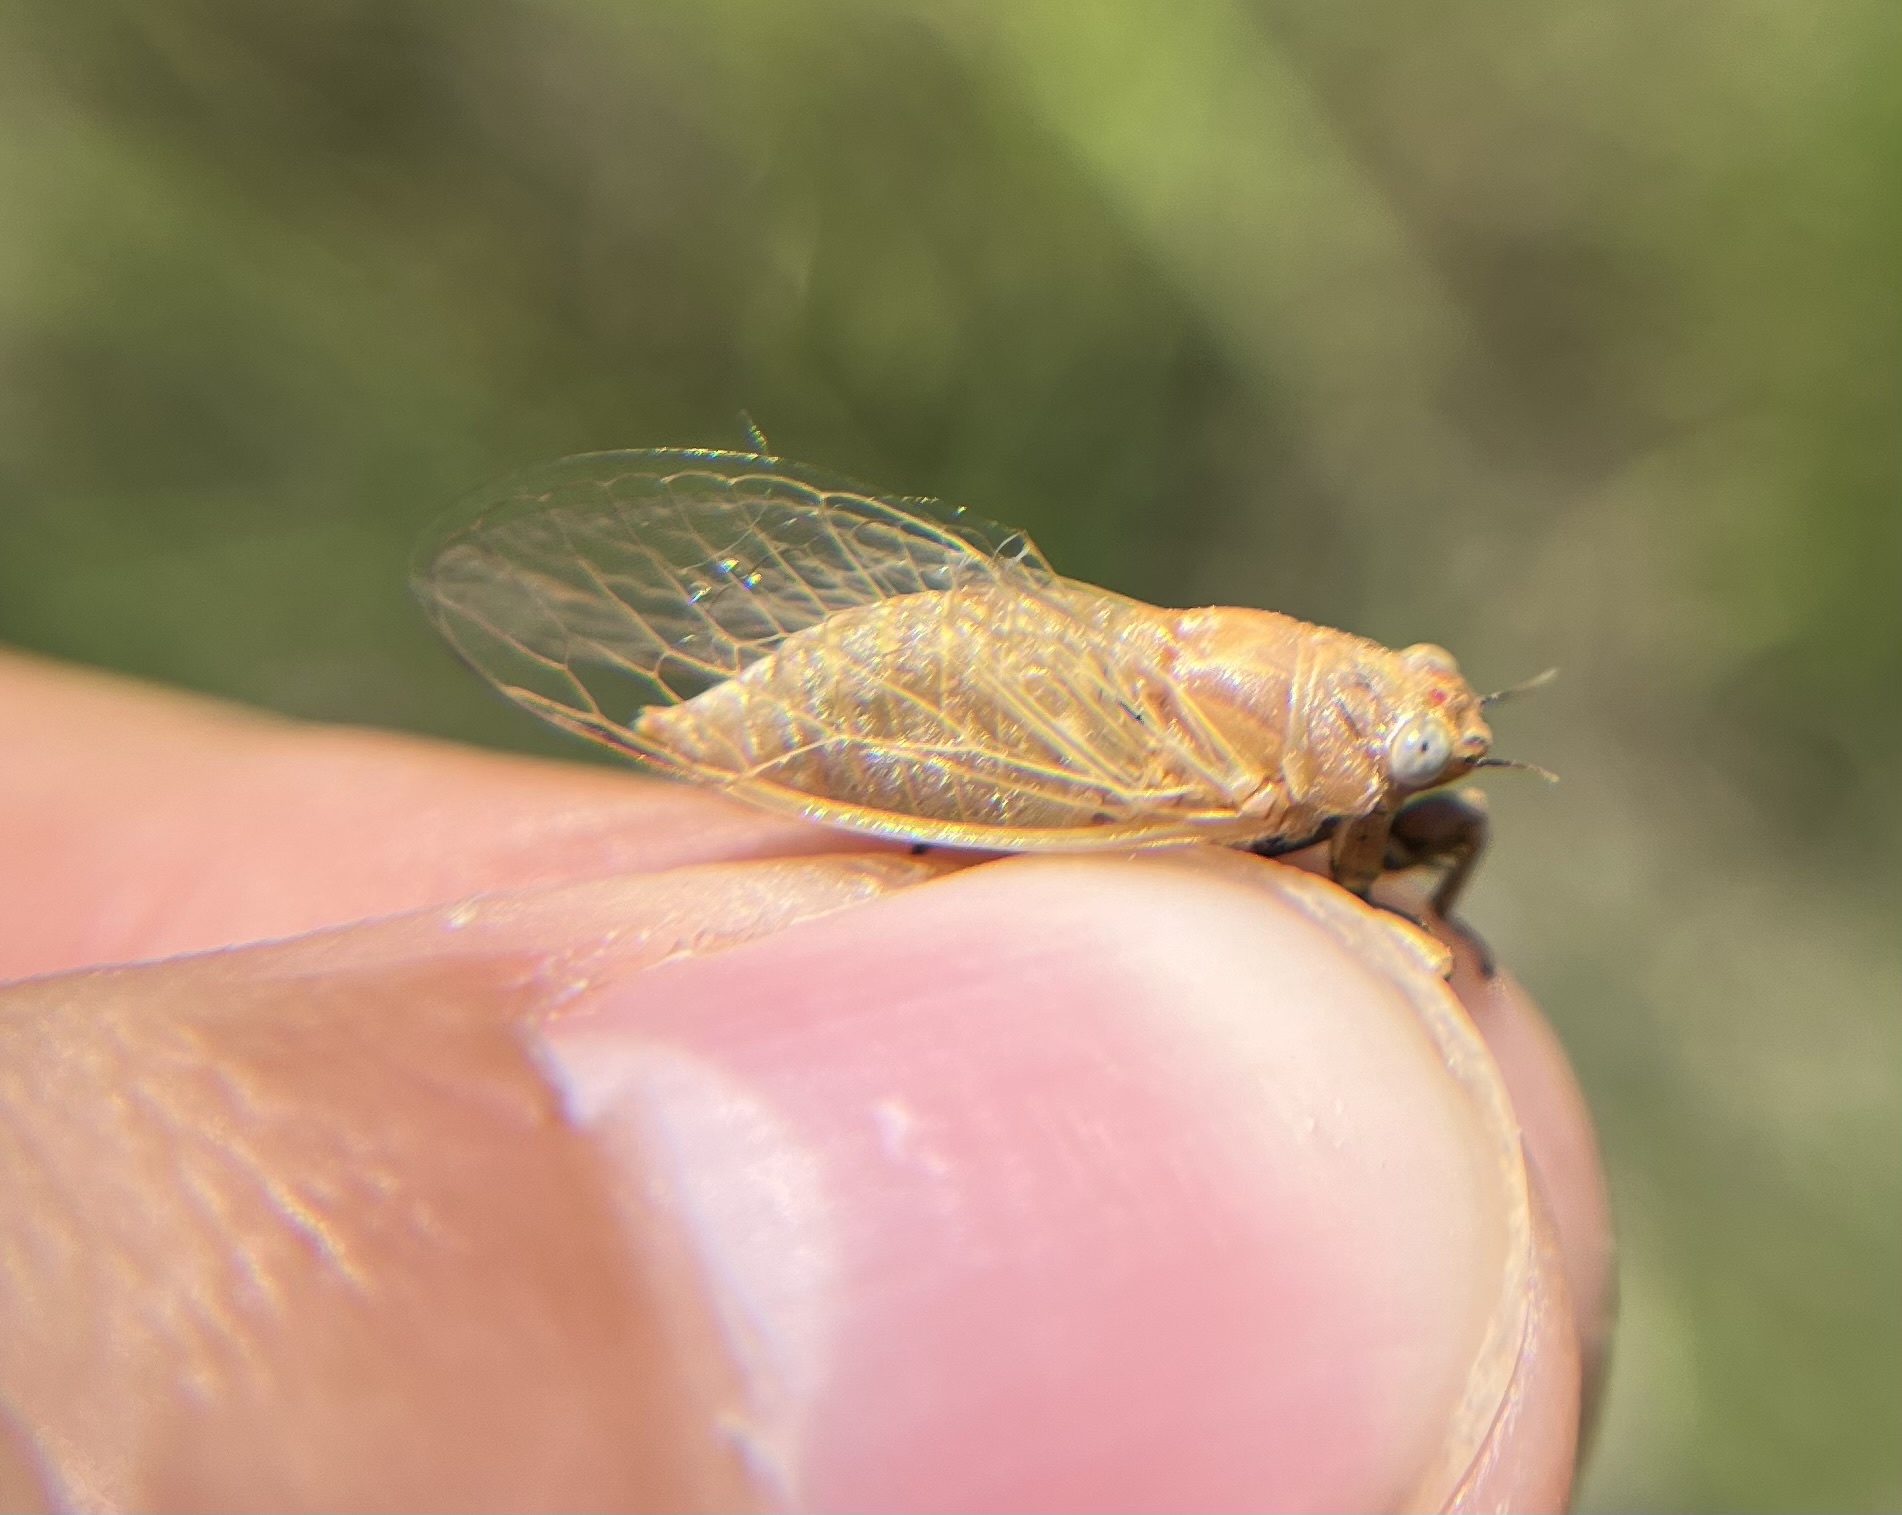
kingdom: Animalia
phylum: Arthropoda
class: Insecta
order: Hemiptera
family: Cicadidae
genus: Cicadettana
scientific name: Cicadettana calliope
